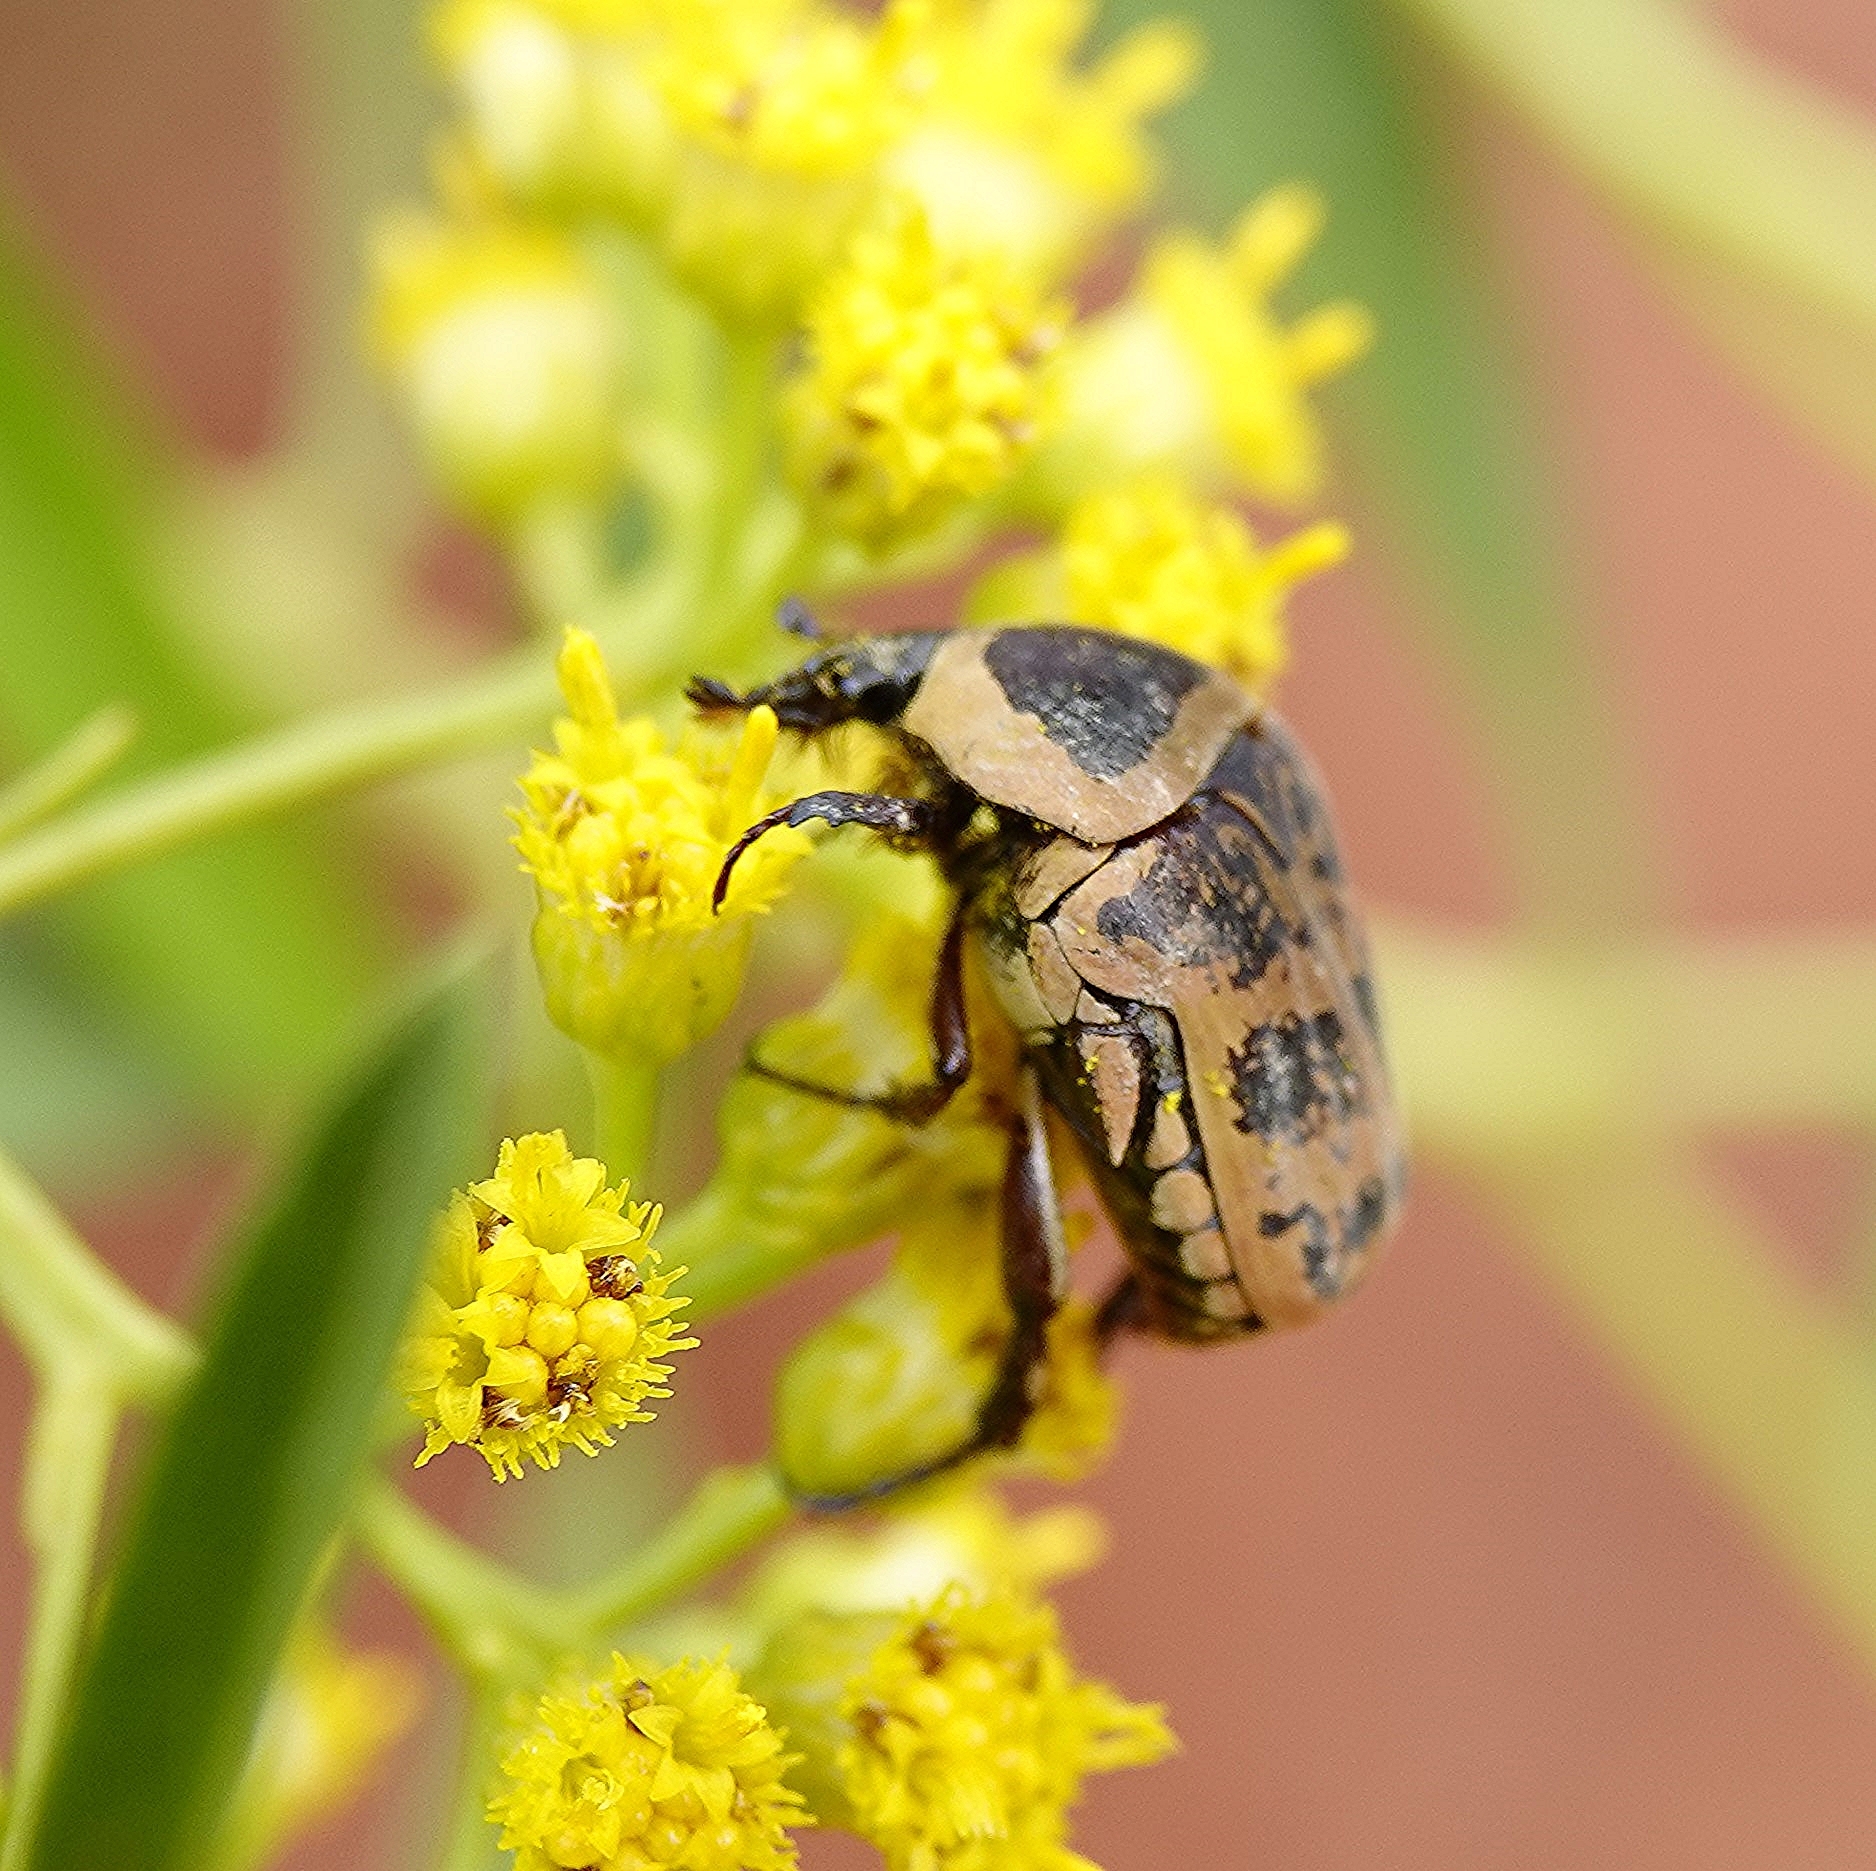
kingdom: Animalia
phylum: Arthropoda
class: Insecta
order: Coleoptera
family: Scarabaeidae
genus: Euryomia
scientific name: Euryomia argentea
